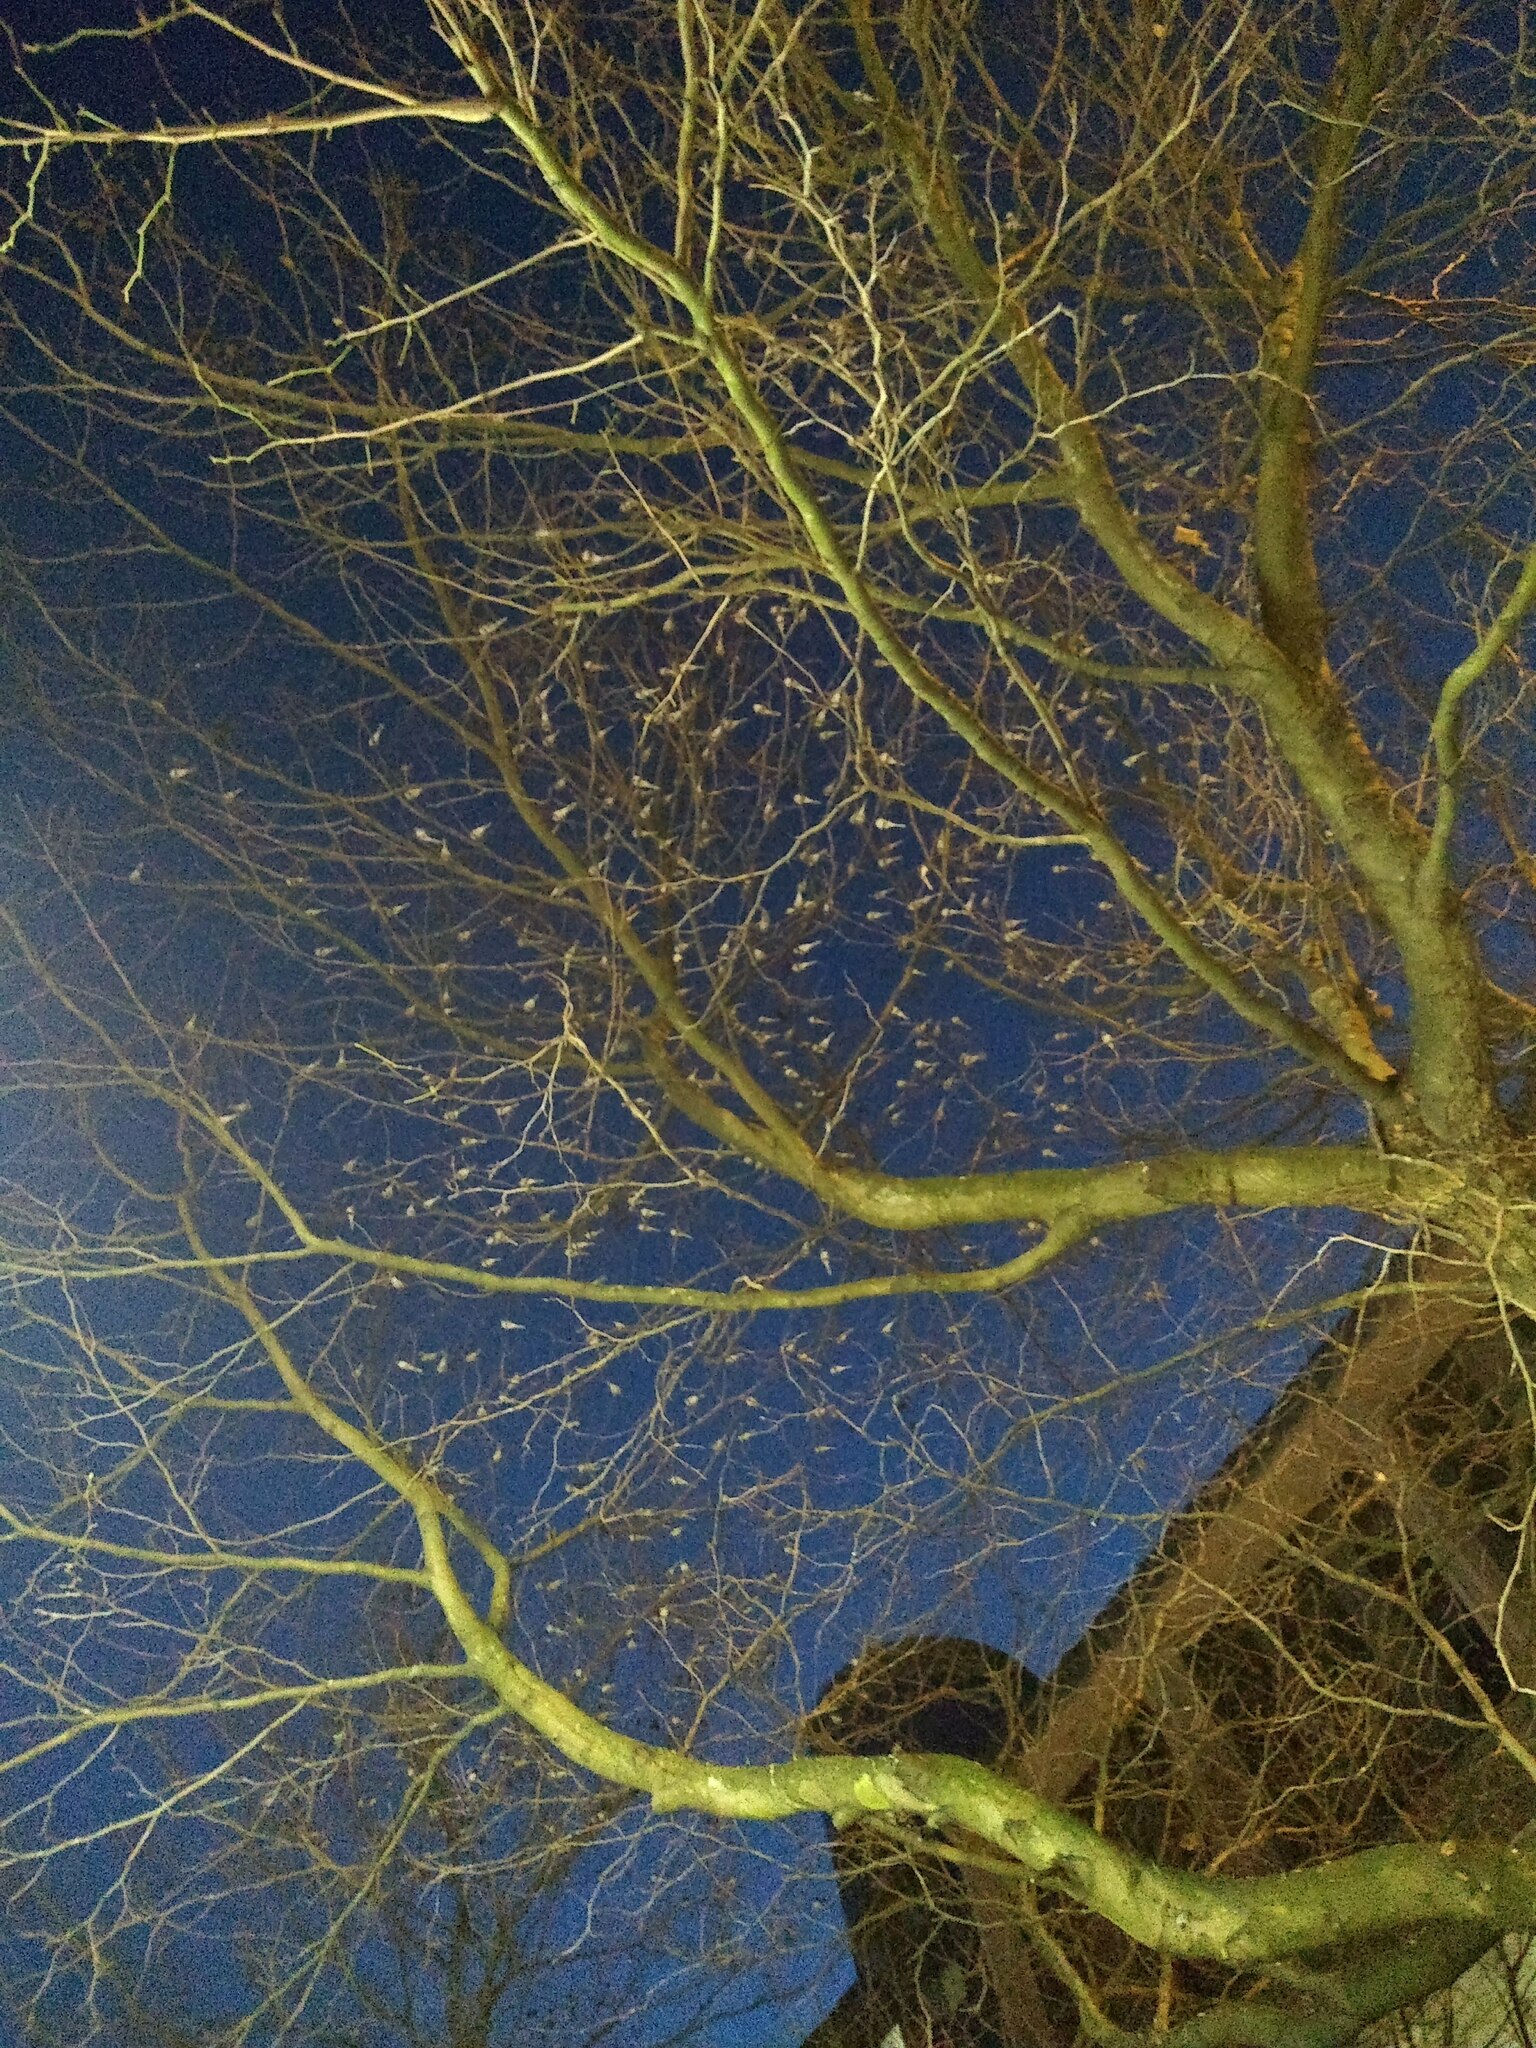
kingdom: Animalia
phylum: Chordata
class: Aves
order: Passeriformes
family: Motacillidae
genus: Motacilla
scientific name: Motacilla alba
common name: White wagtail
